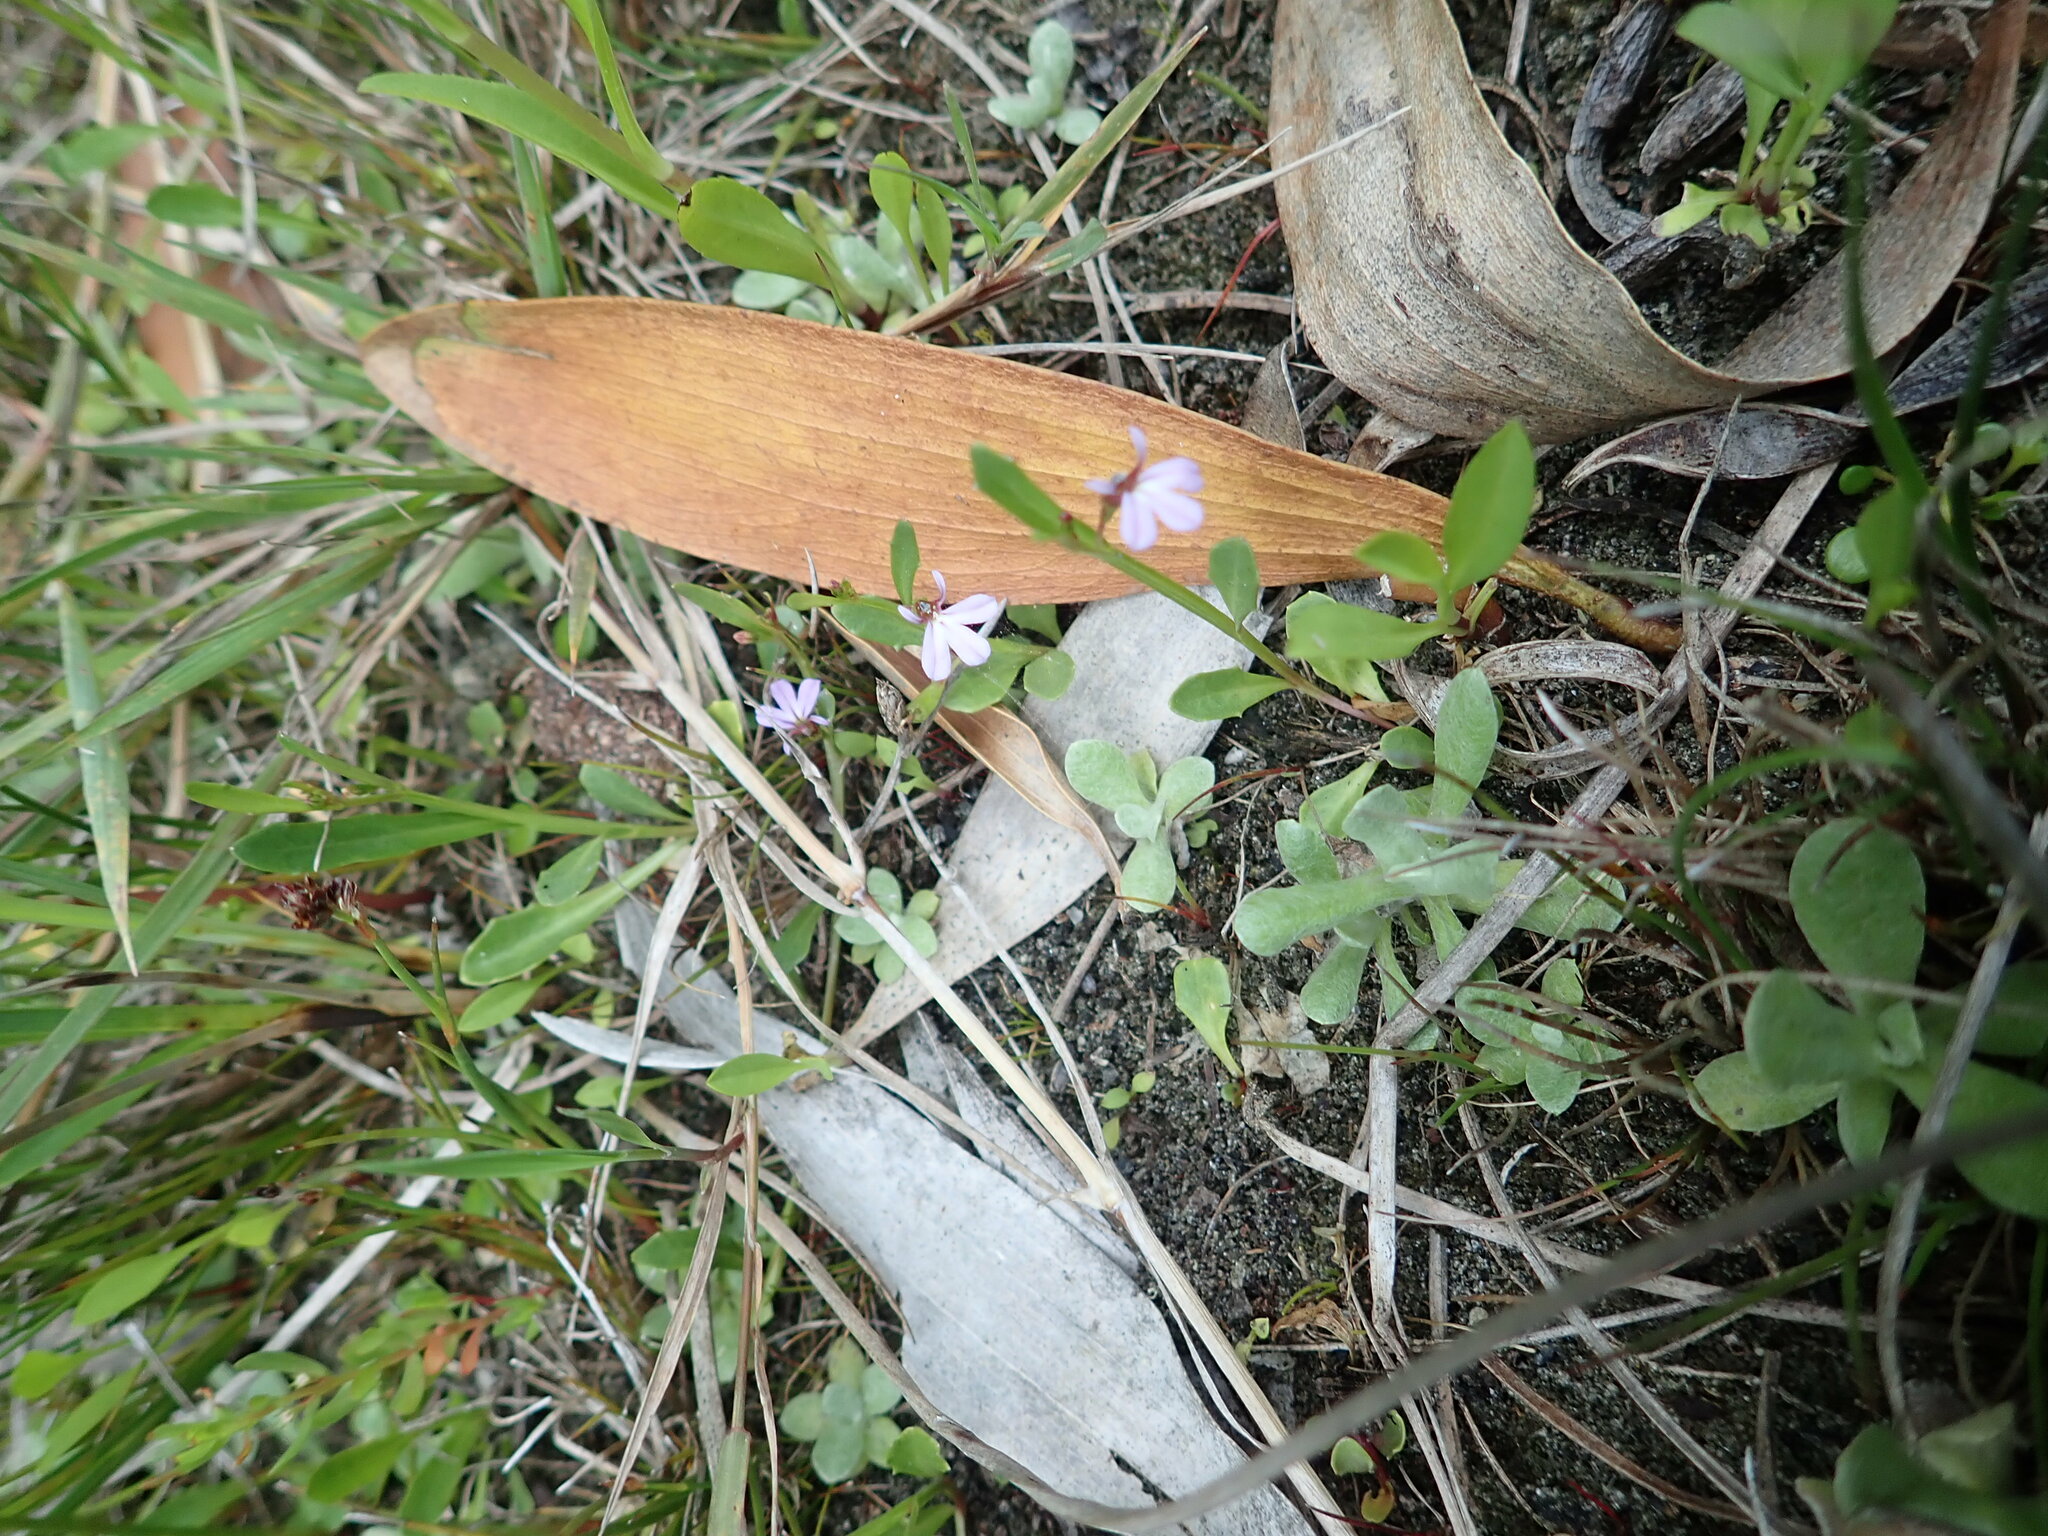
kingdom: Plantae
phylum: Tracheophyta
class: Magnoliopsida
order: Asterales
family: Campanulaceae
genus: Lobelia
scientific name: Lobelia anceps
